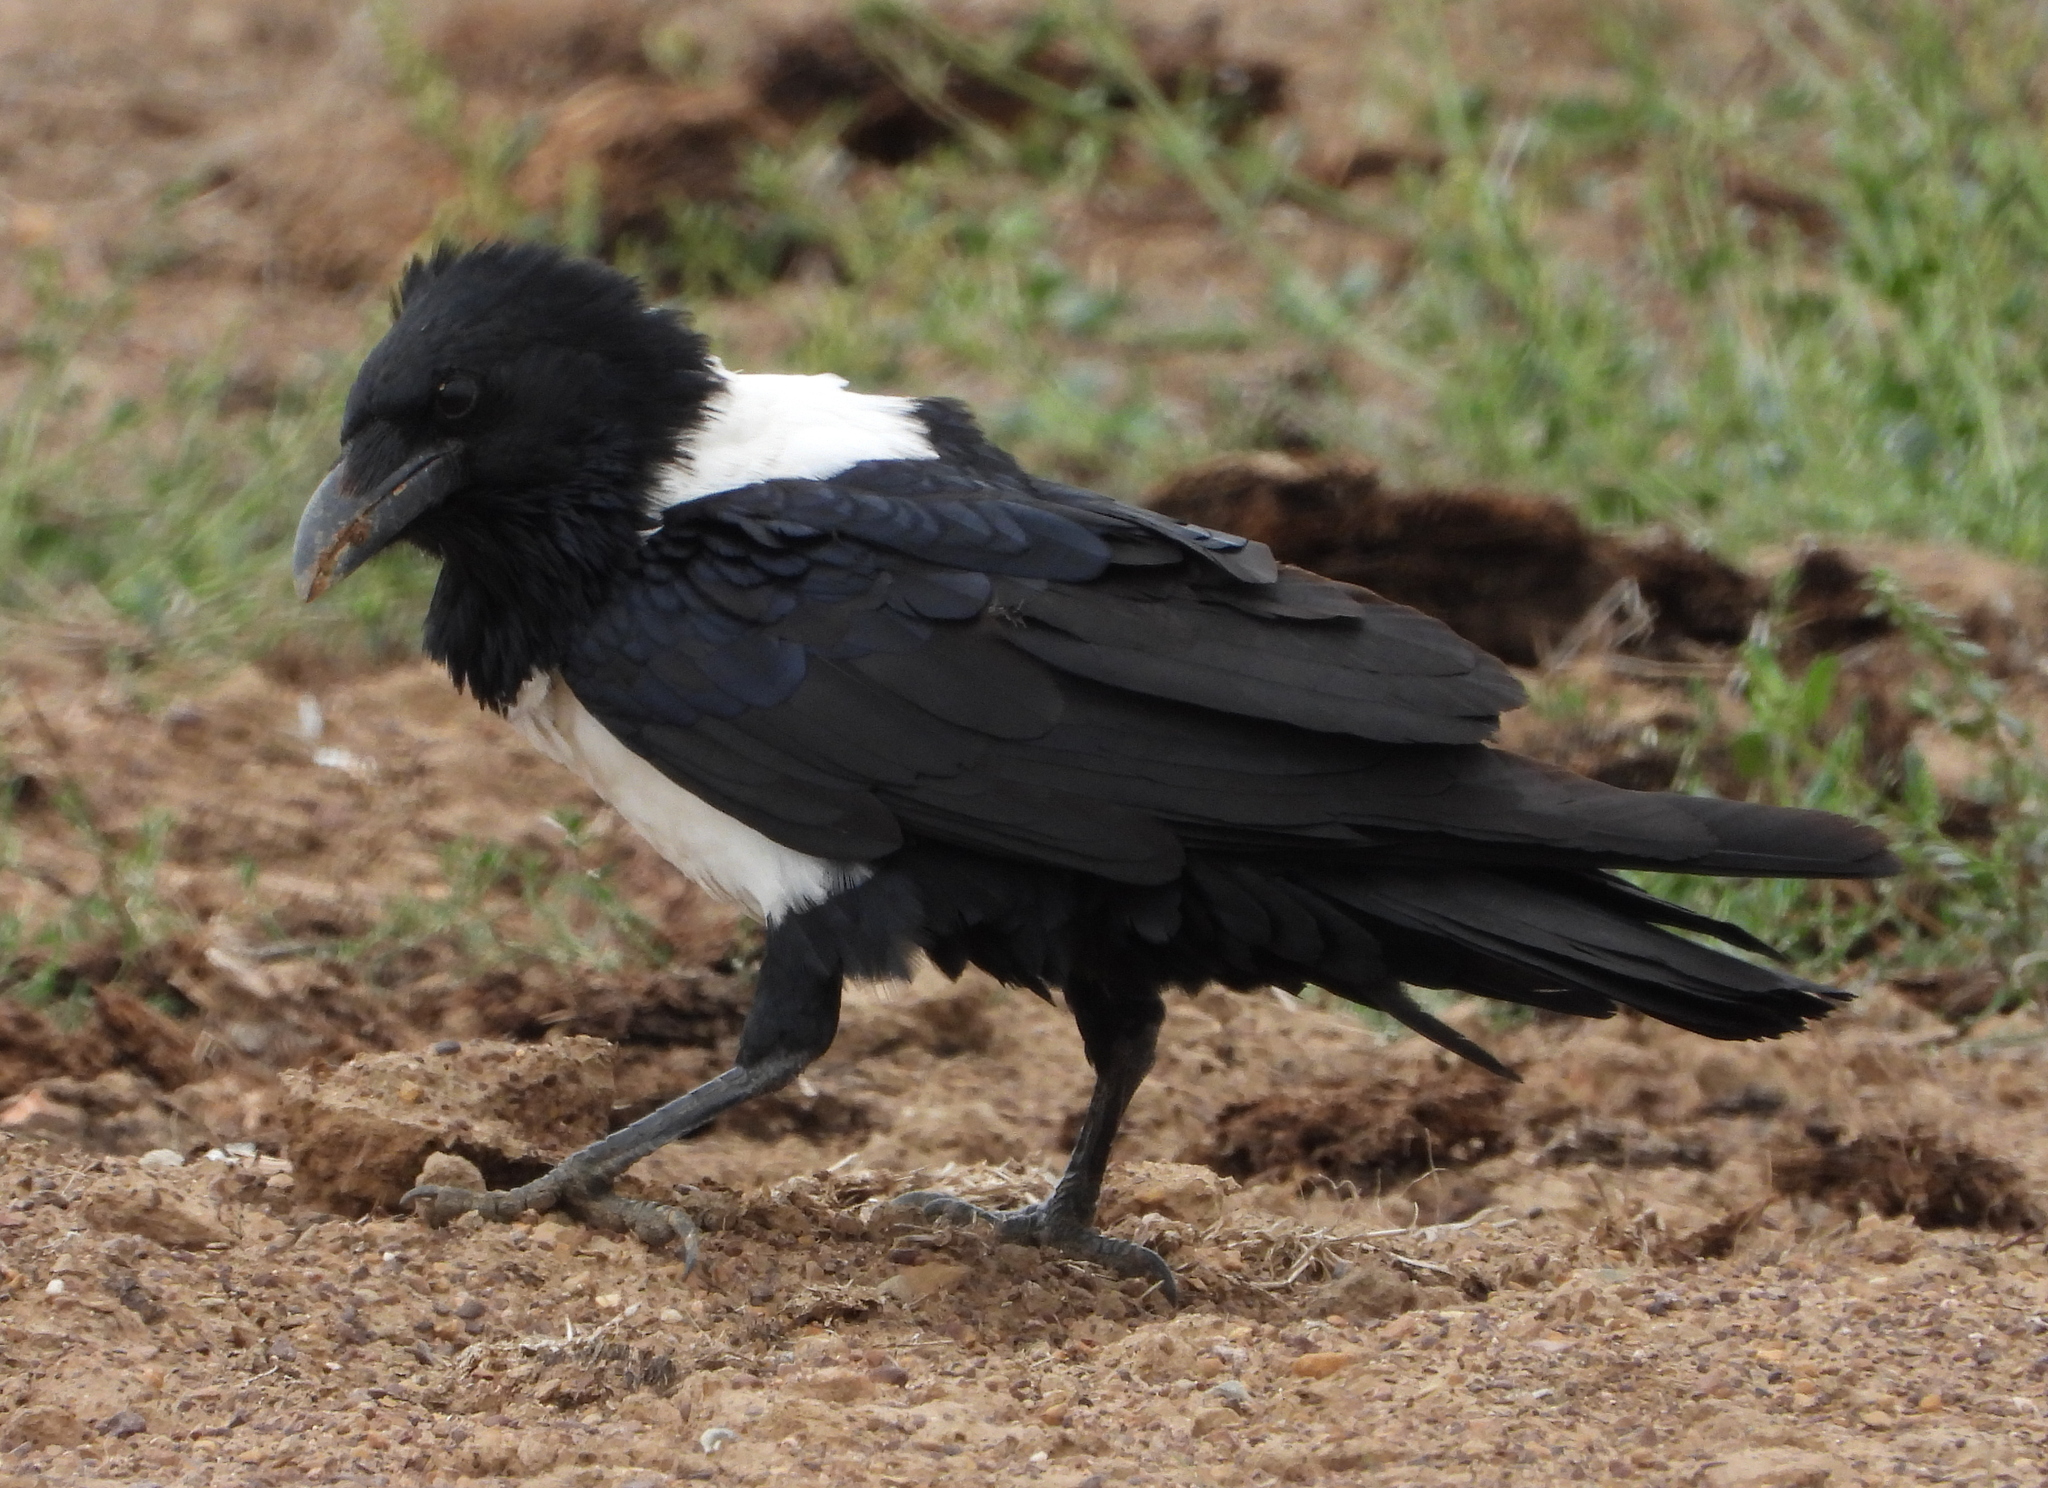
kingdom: Animalia
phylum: Chordata
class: Aves
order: Passeriformes
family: Corvidae
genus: Corvus
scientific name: Corvus albus
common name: Pied crow
